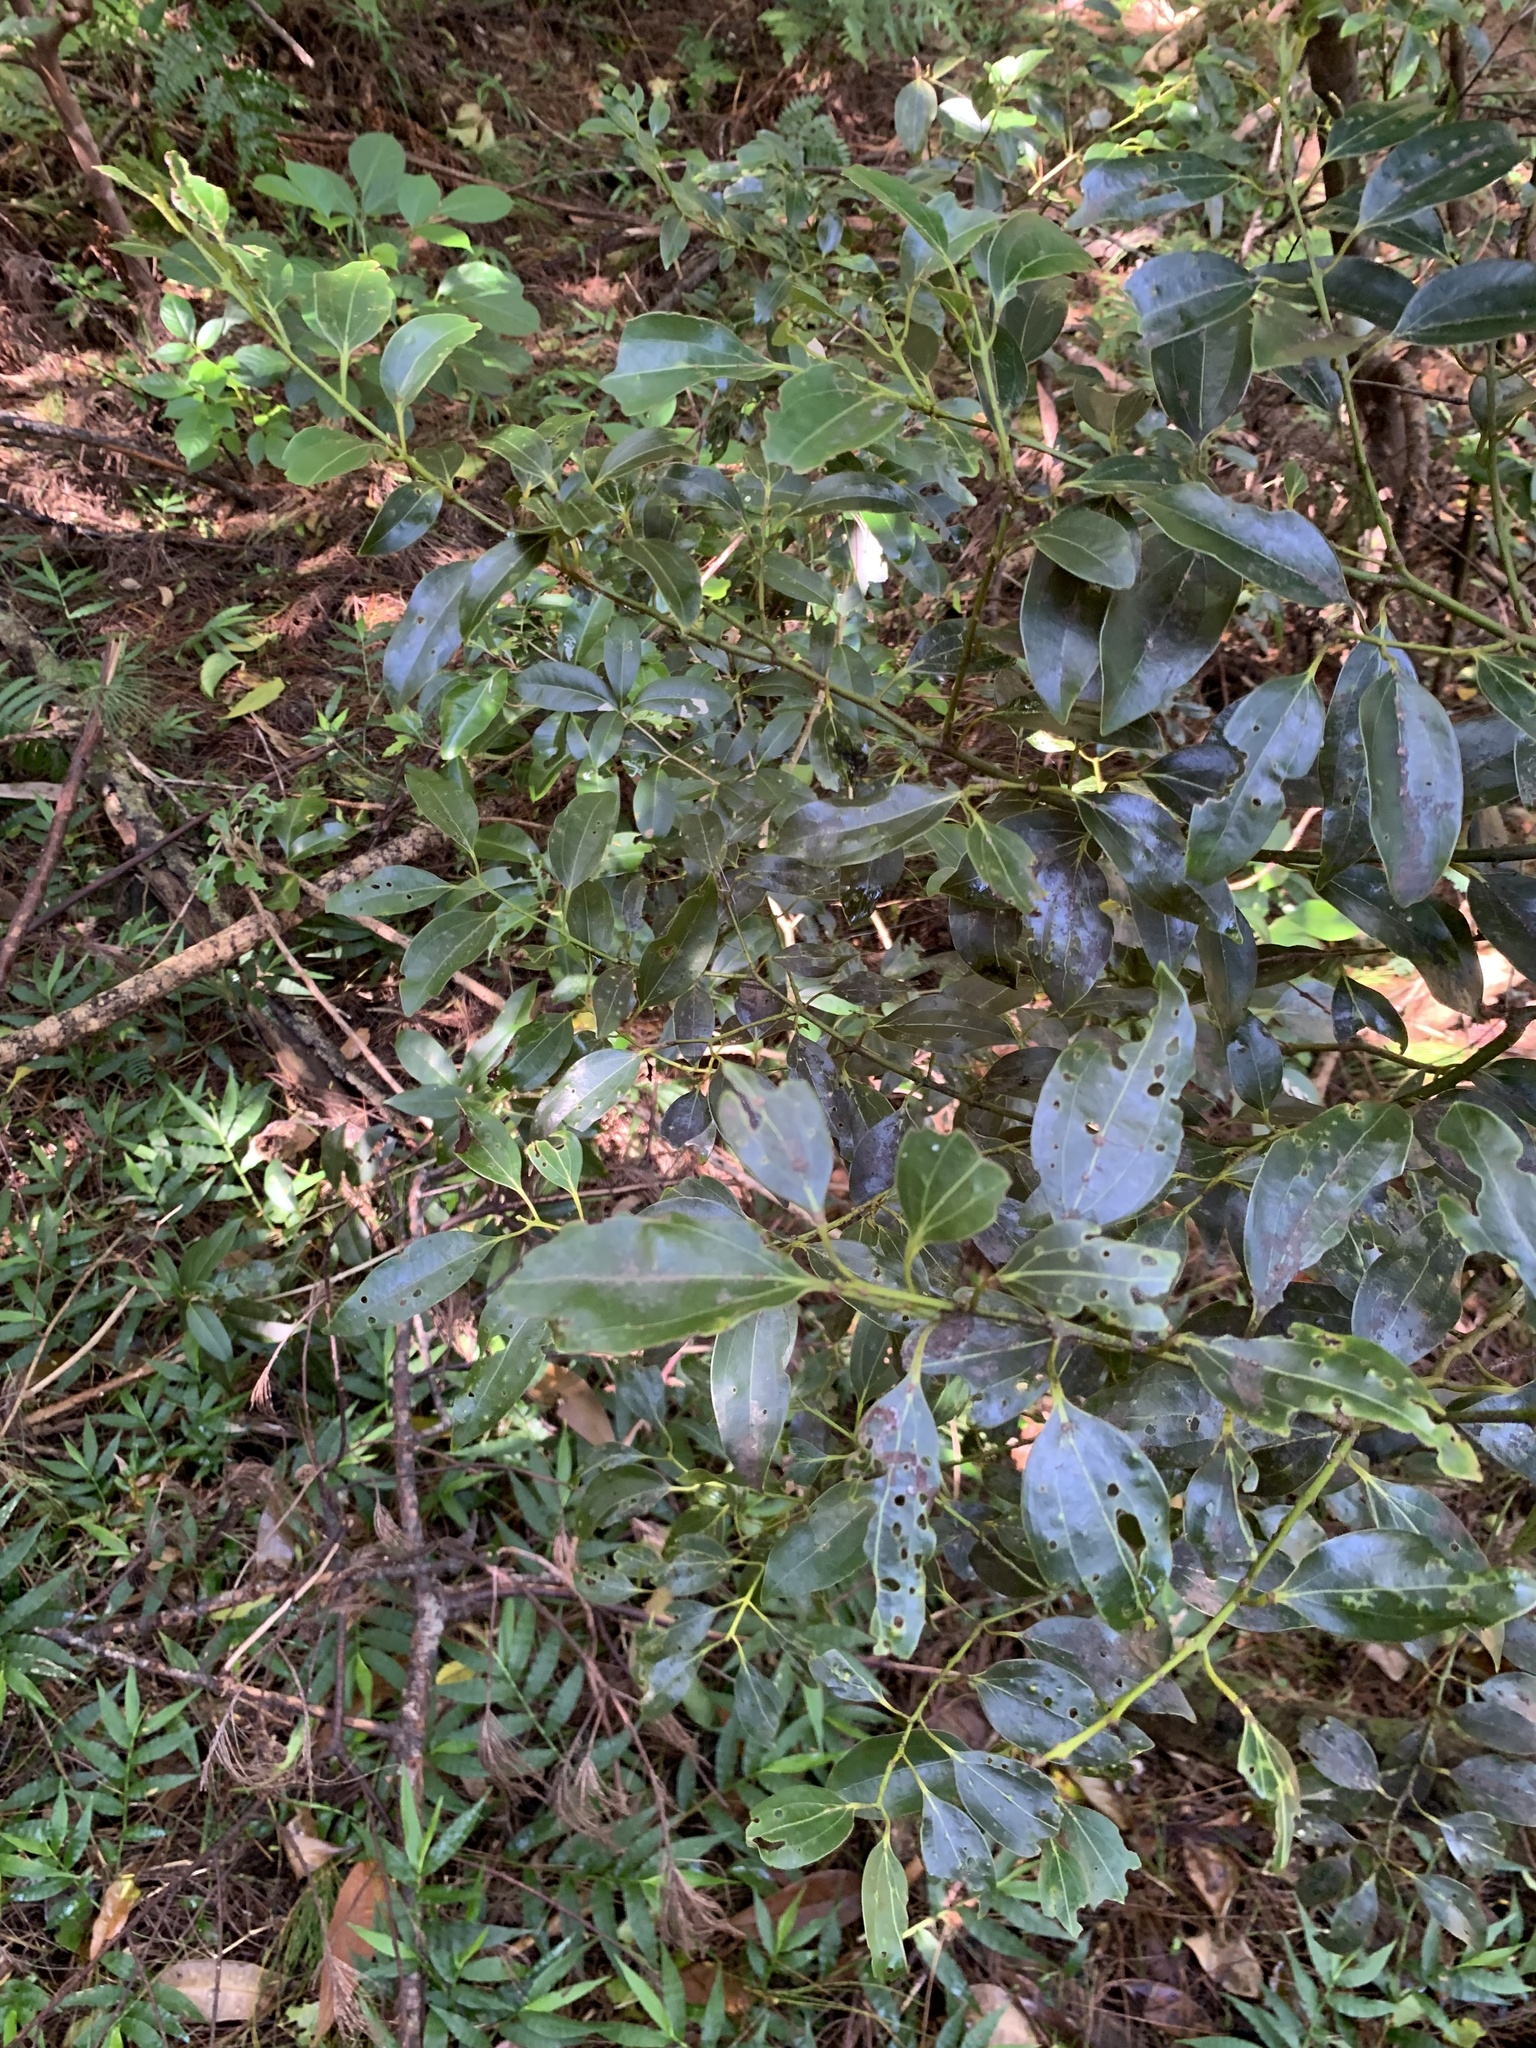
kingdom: Plantae
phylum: Tracheophyta
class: Magnoliopsida
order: Laurales
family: Lauraceae
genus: Cinnamomum
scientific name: Cinnamomum pseudopedunculatum
